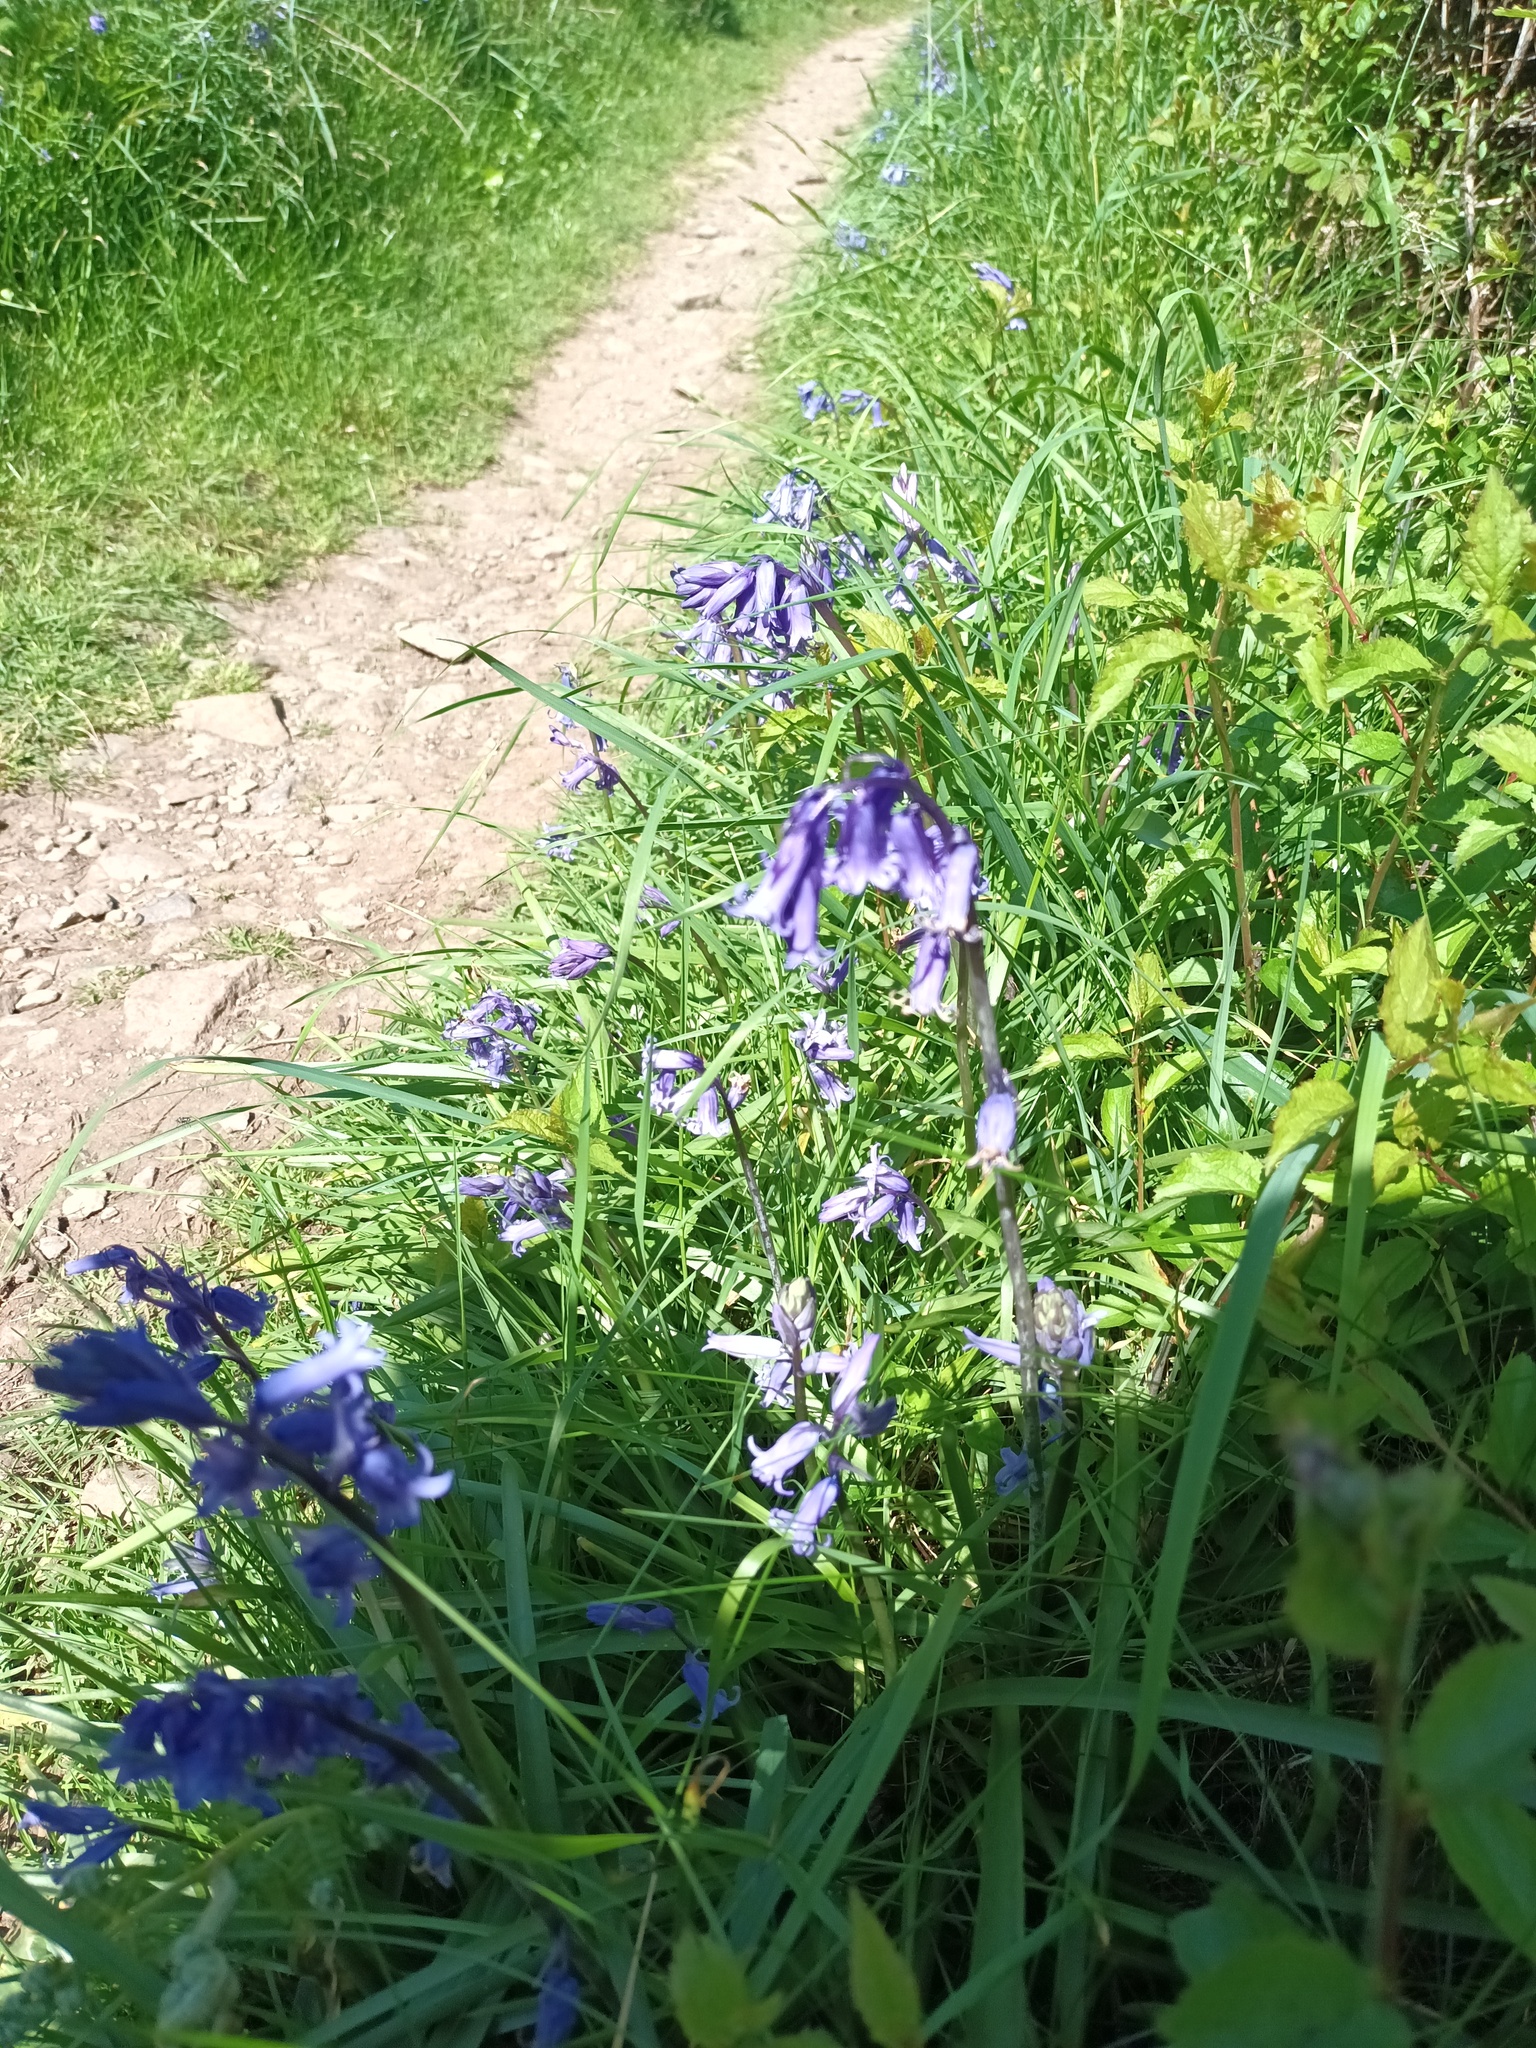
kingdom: Plantae
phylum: Tracheophyta
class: Liliopsida
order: Asparagales
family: Asparagaceae
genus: Hyacinthoides
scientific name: Hyacinthoides non-scripta
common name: Bluebell
